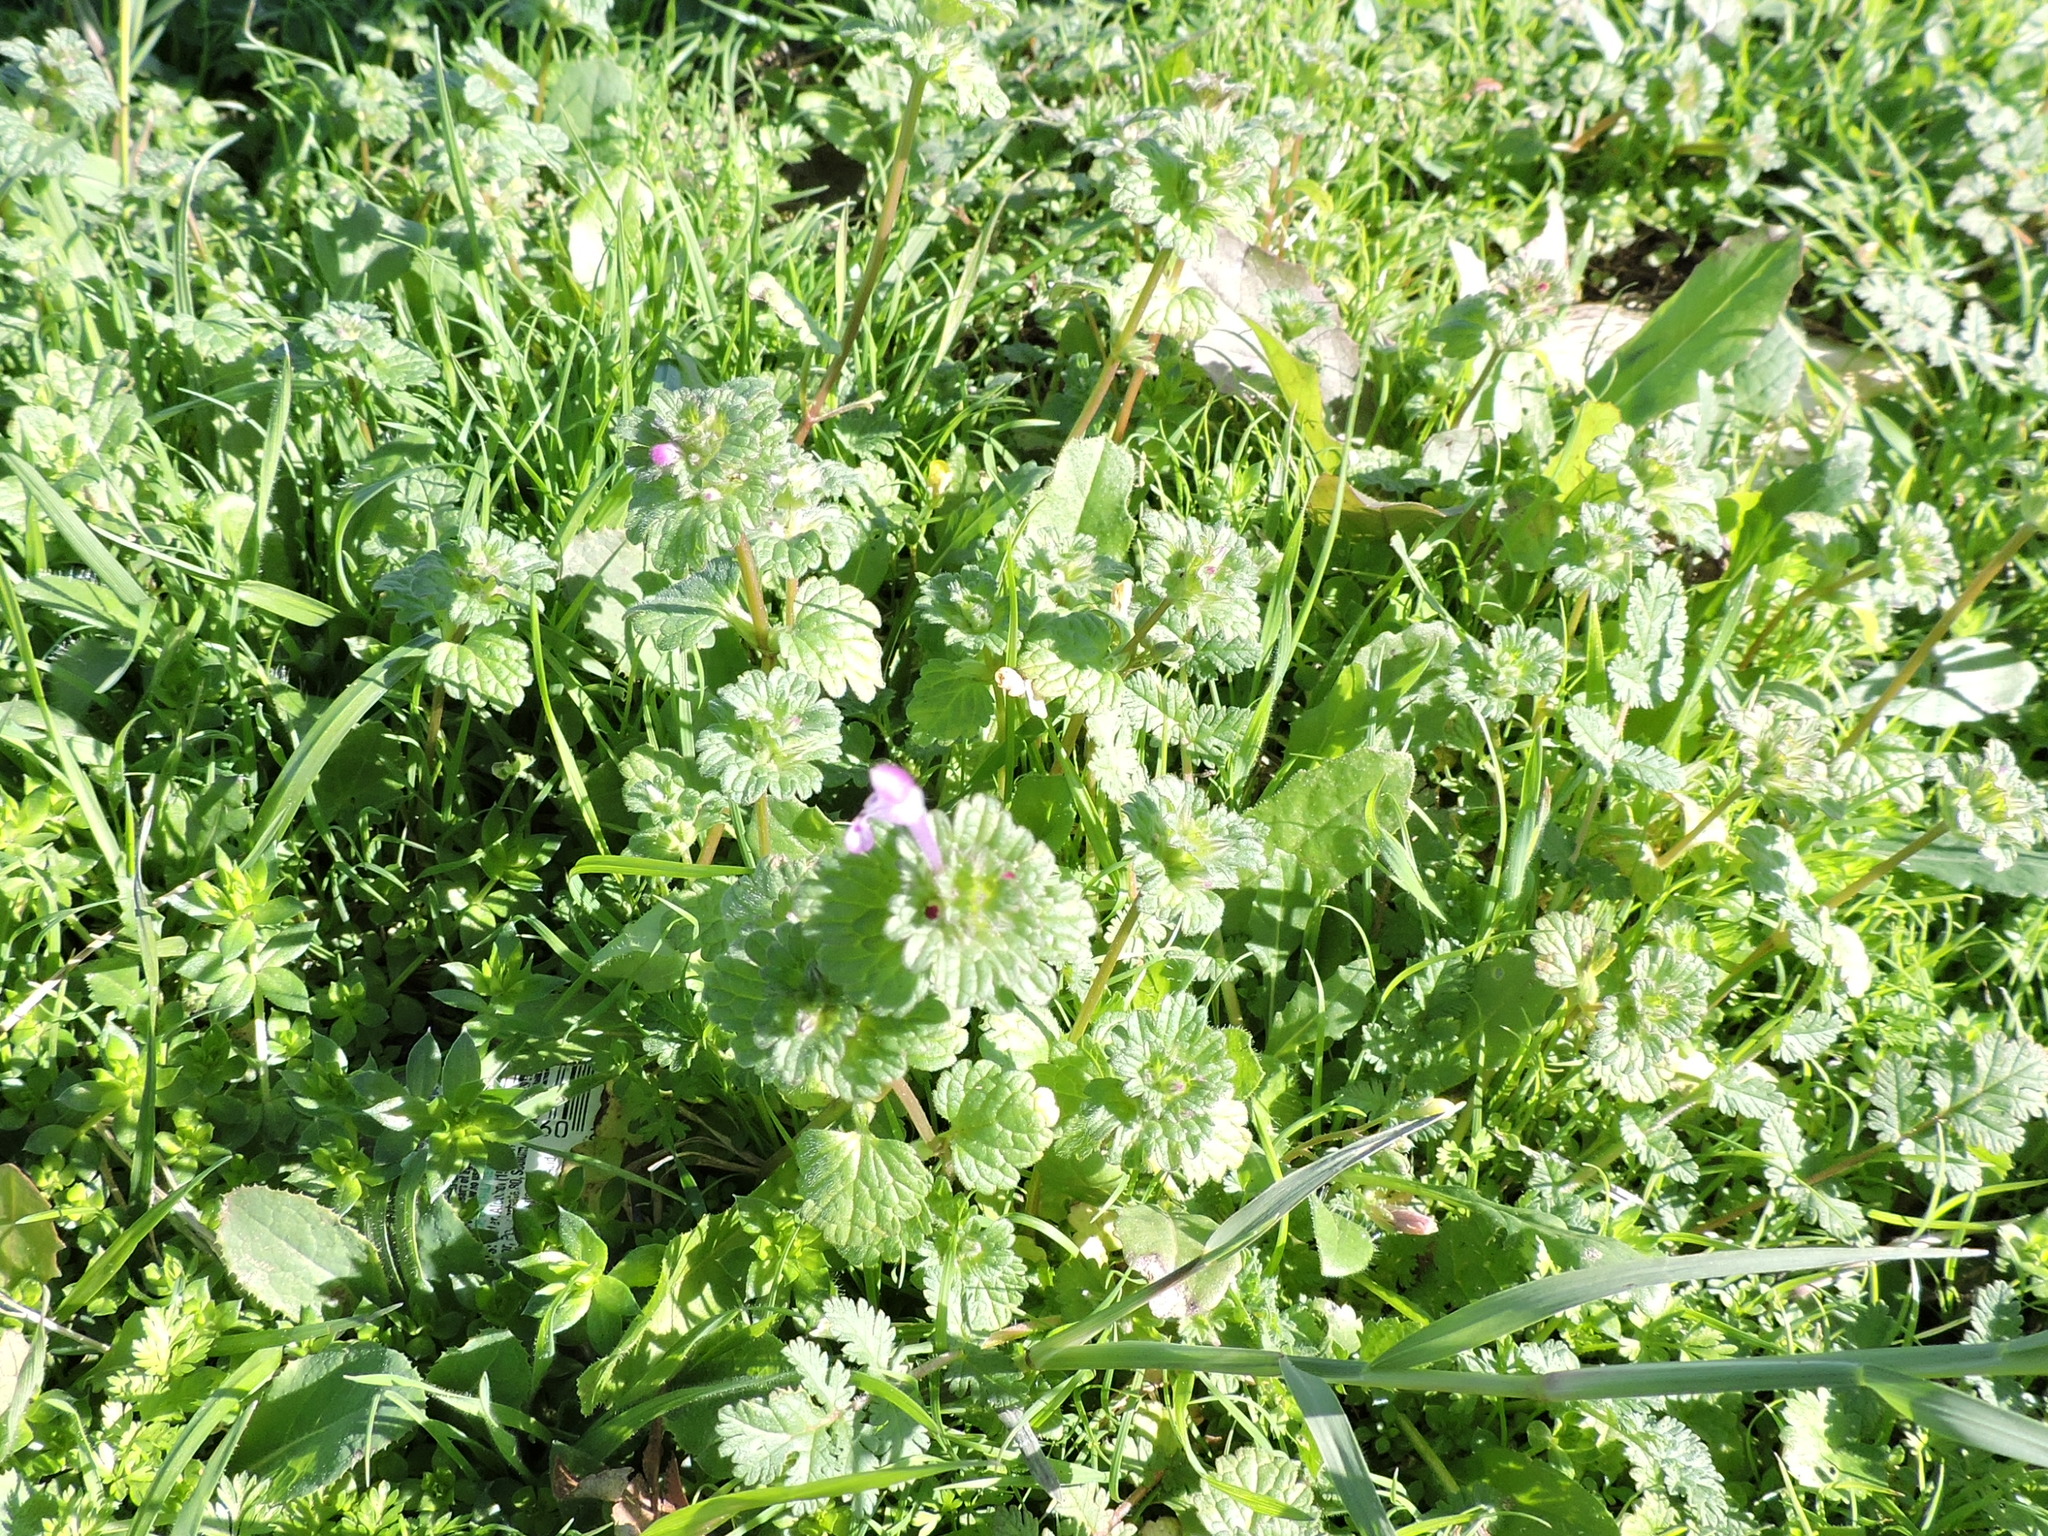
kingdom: Plantae
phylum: Tracheophyta
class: Magnoliopsida
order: Lamiales
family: Lamiaceae
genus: Lamium
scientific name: Lamium amplexicaule
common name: Henbit dead-nettle
